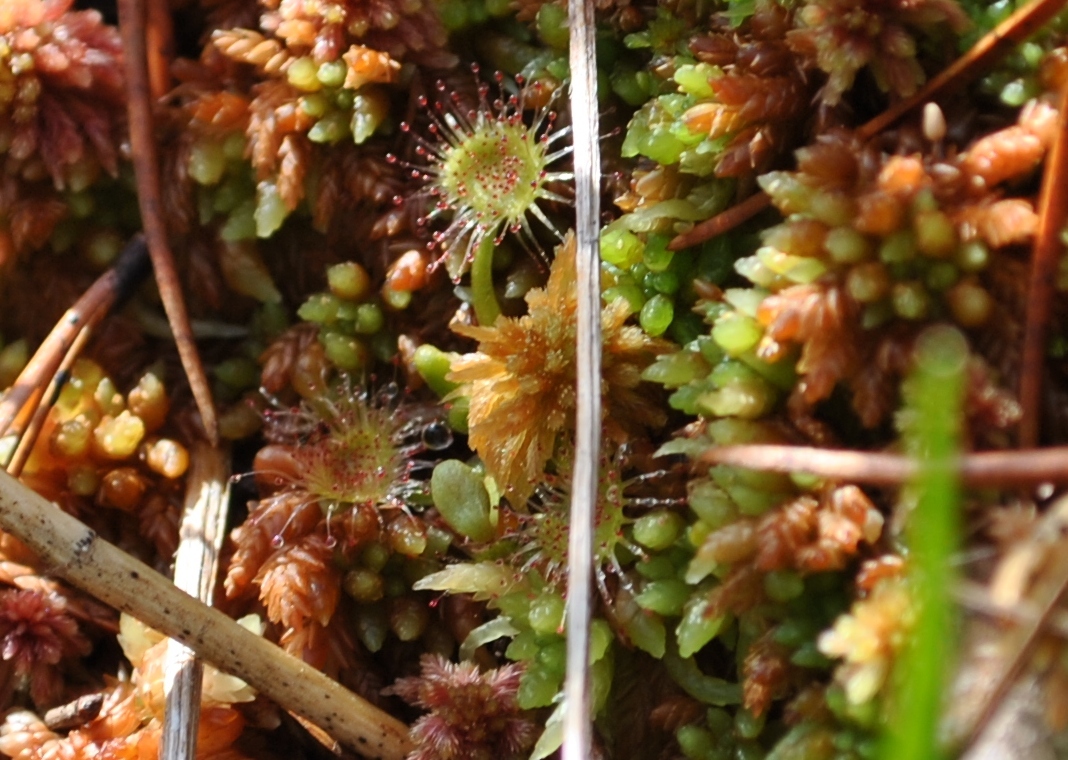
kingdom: Plantae
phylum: Tracheophyta
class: Magnoliopsida
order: Caryophyllales
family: Droseraceae
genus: Drosera
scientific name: Drosera rotundifolia
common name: Round-leaved sundew
